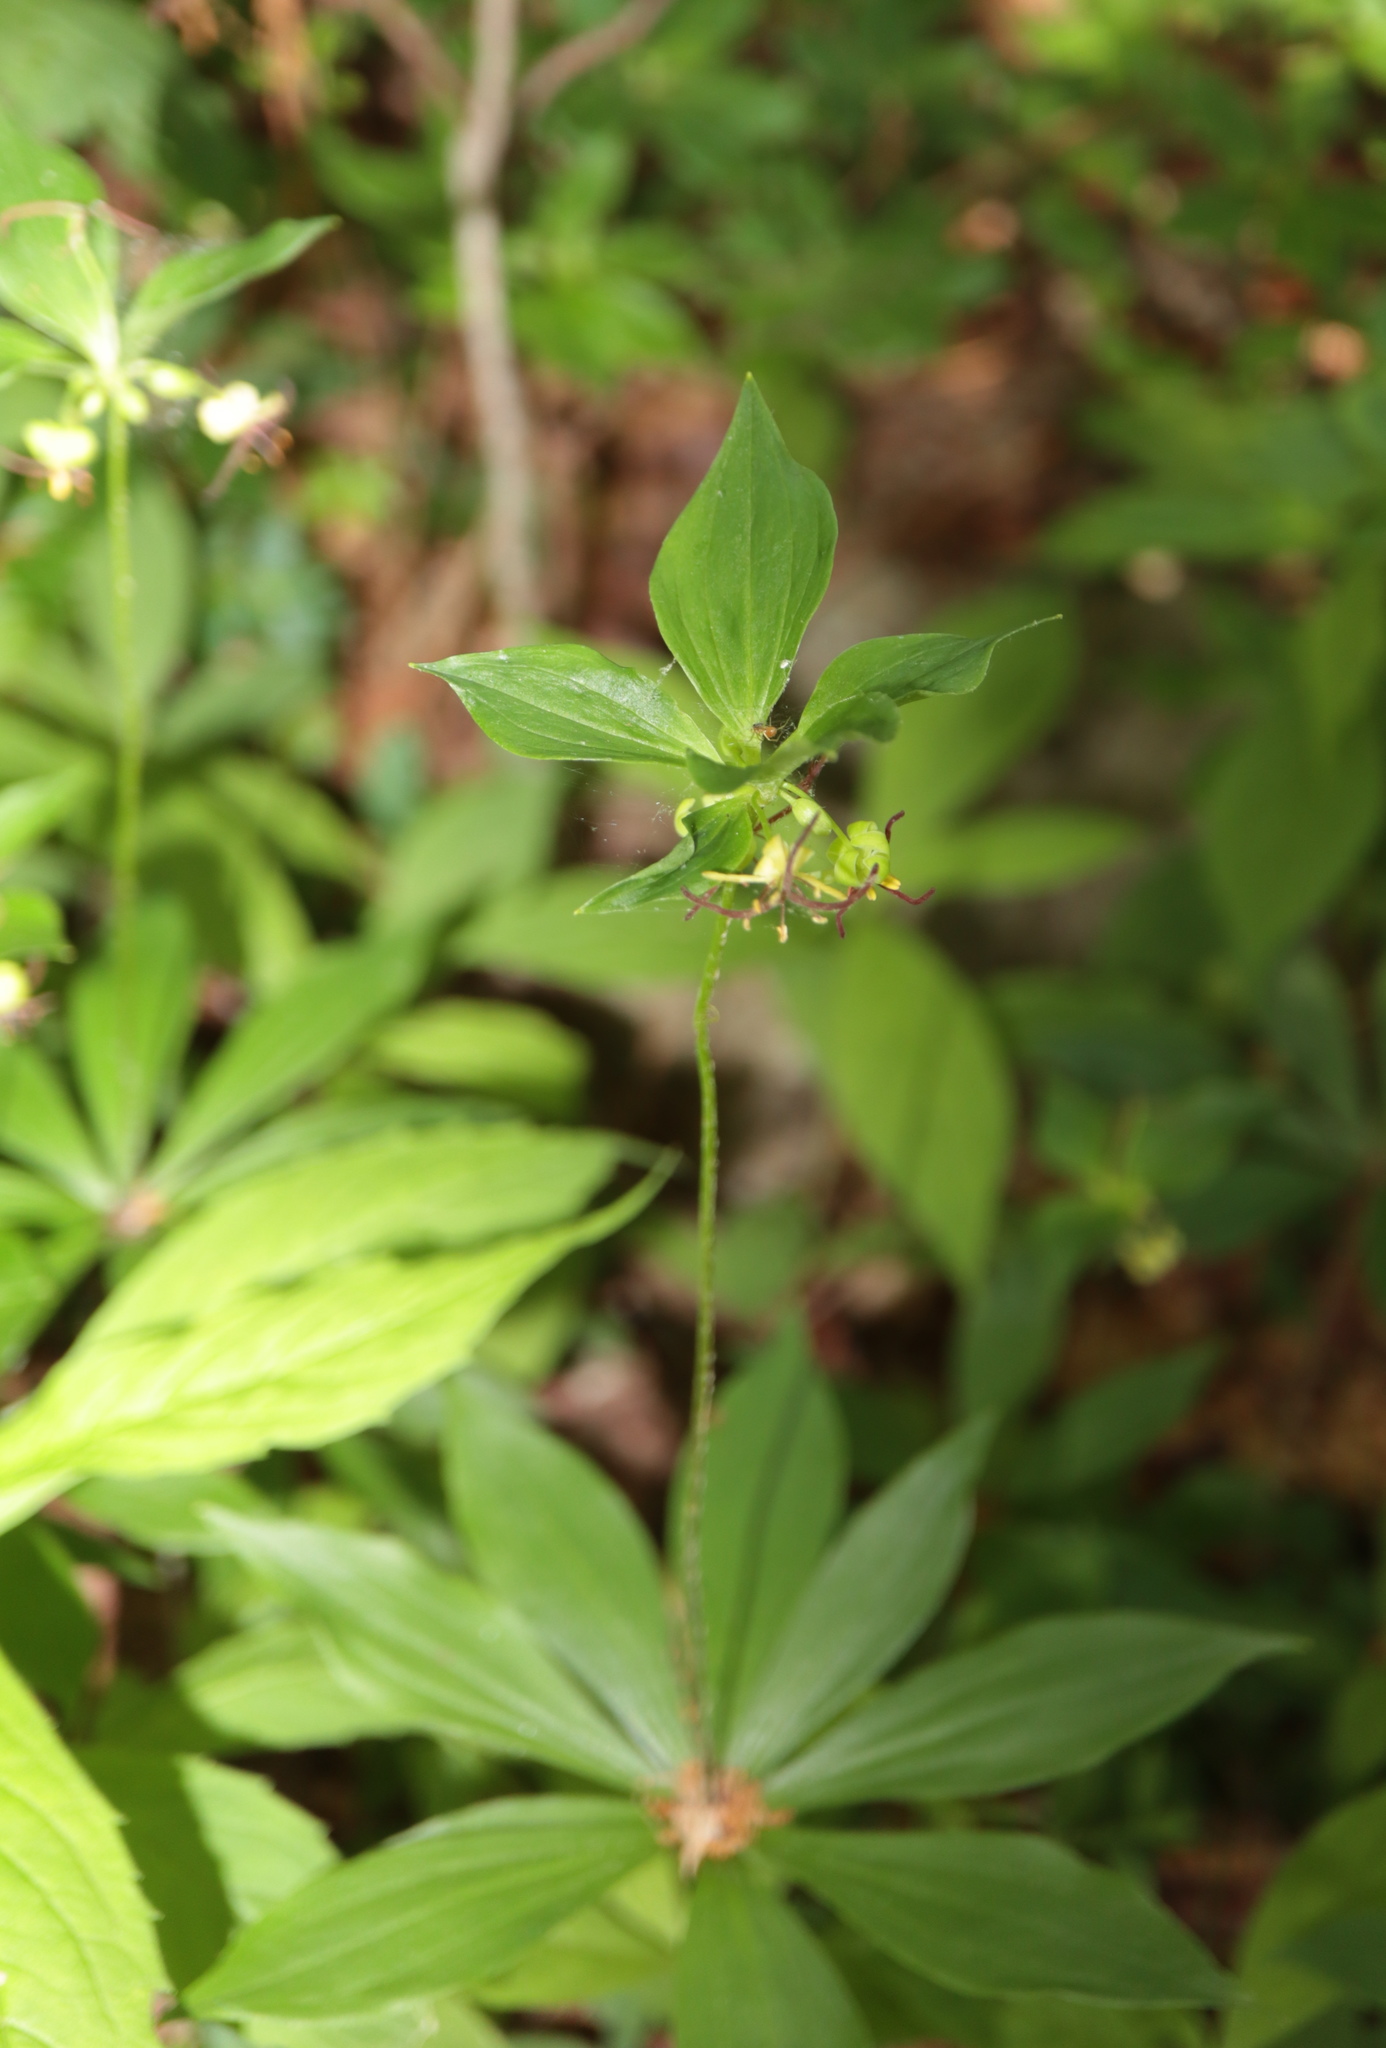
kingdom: Plantae
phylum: Tracheophyta
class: Liliopsida
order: Liliales
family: Liliaceae
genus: Medeola
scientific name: Medeola virginiana
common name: Indian cucumber-root
